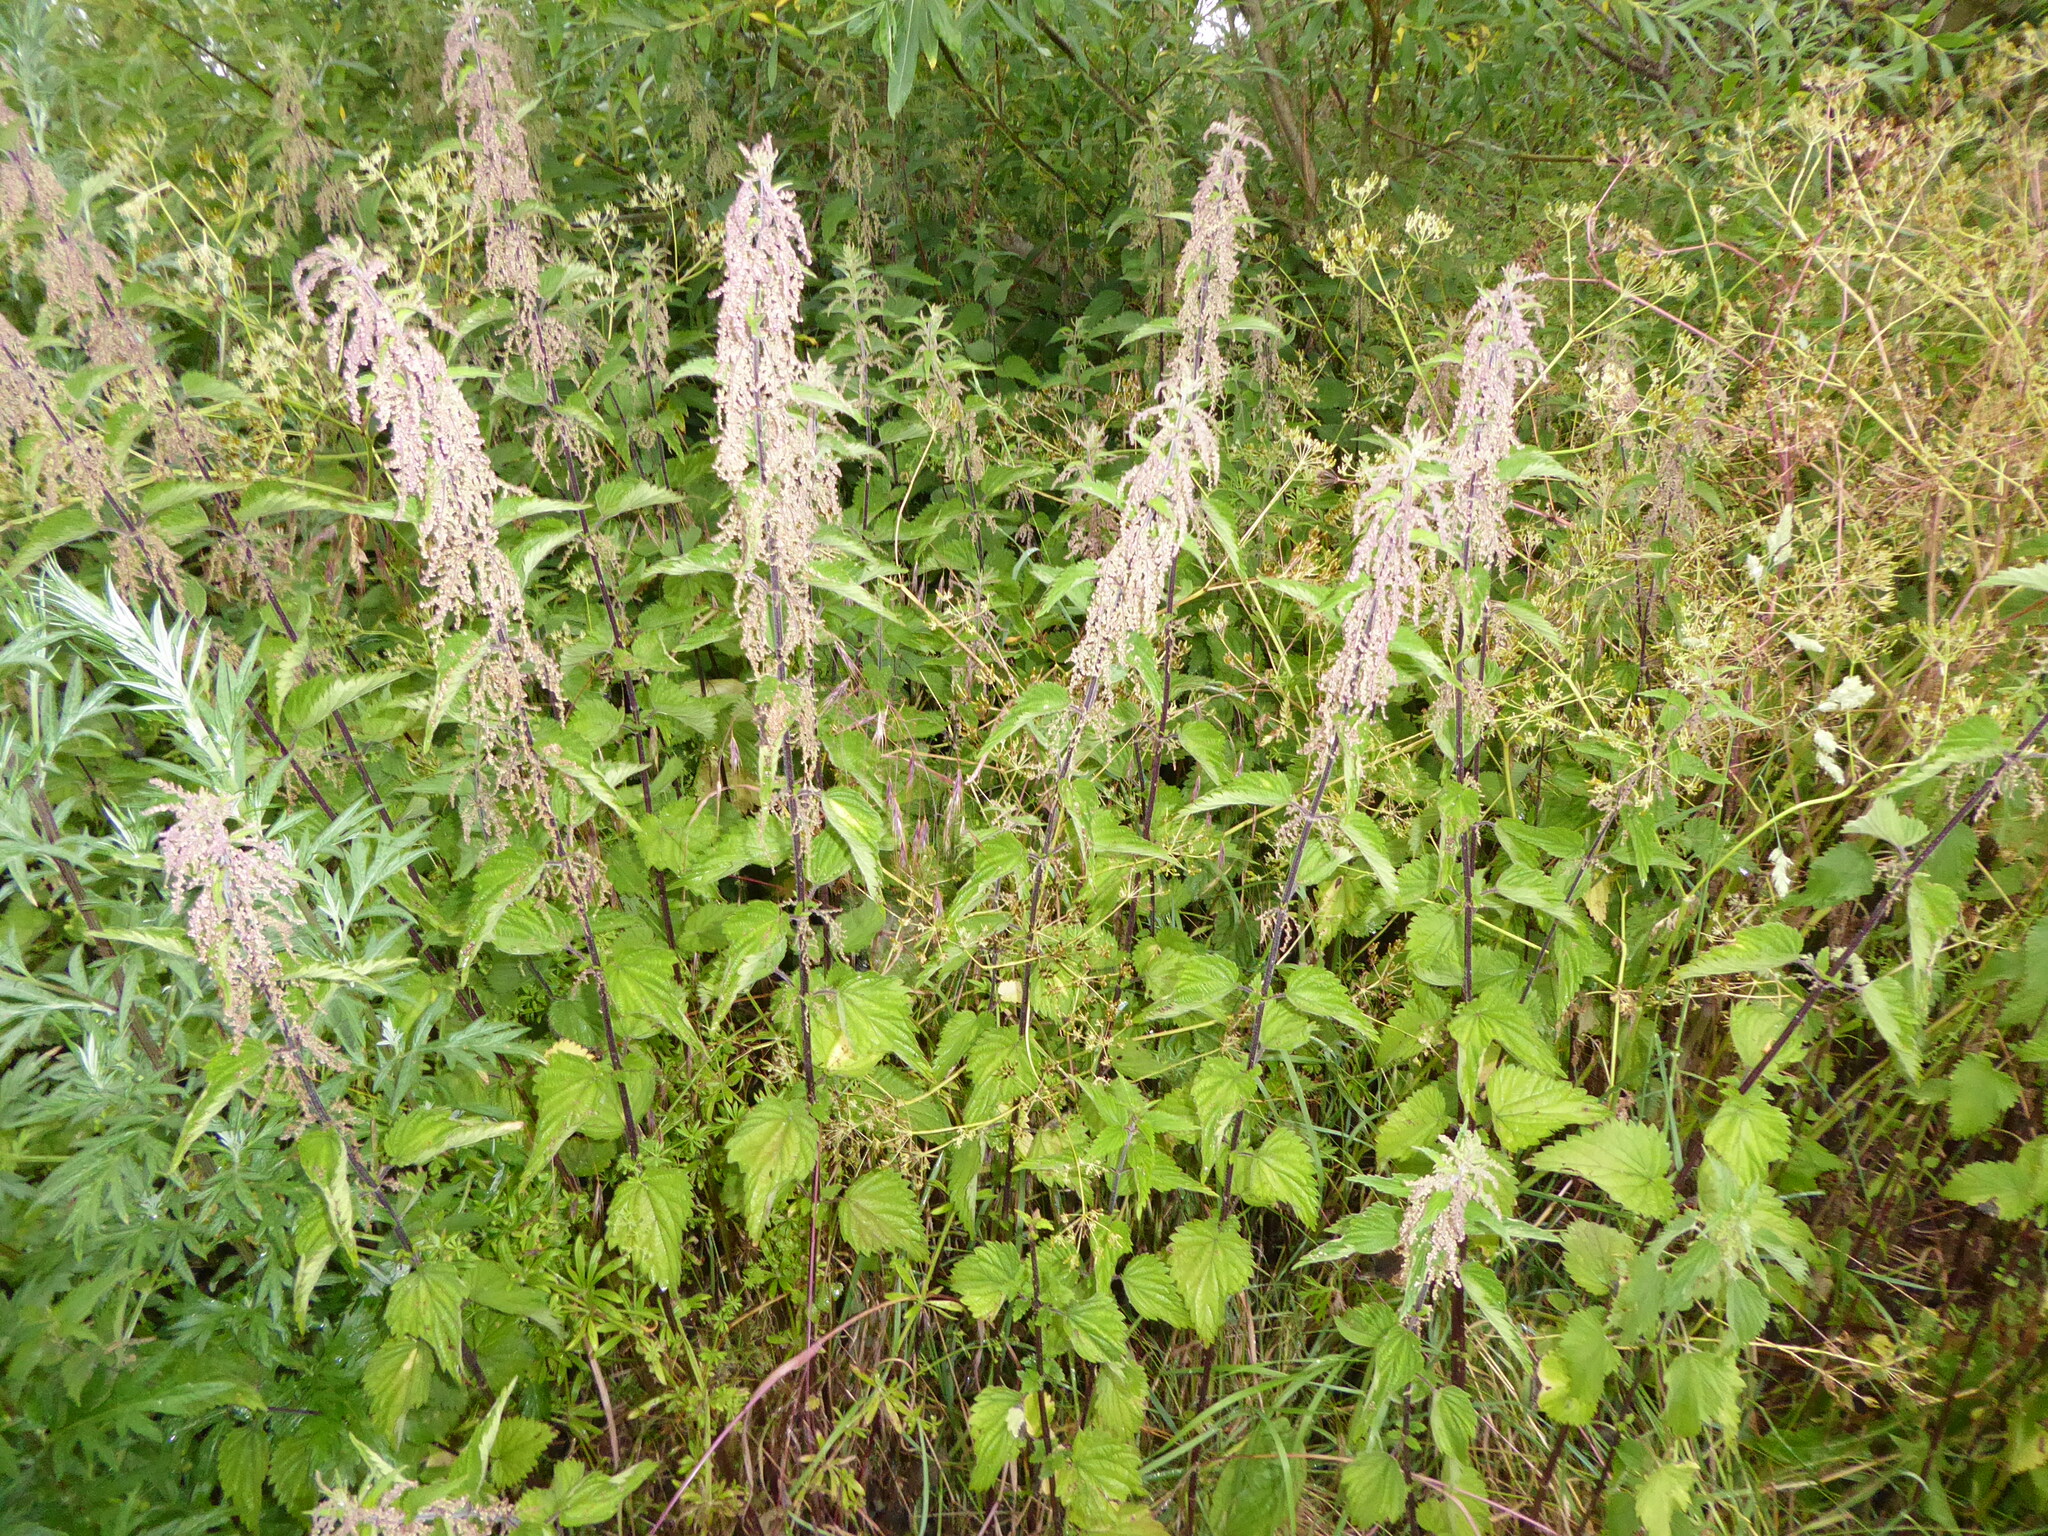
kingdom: Plantae
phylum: Tracheophyta
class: Magnoliopsida
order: Rosales
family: Urticaceae
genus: Urtica
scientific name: Urtica dioica
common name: Common nettle
